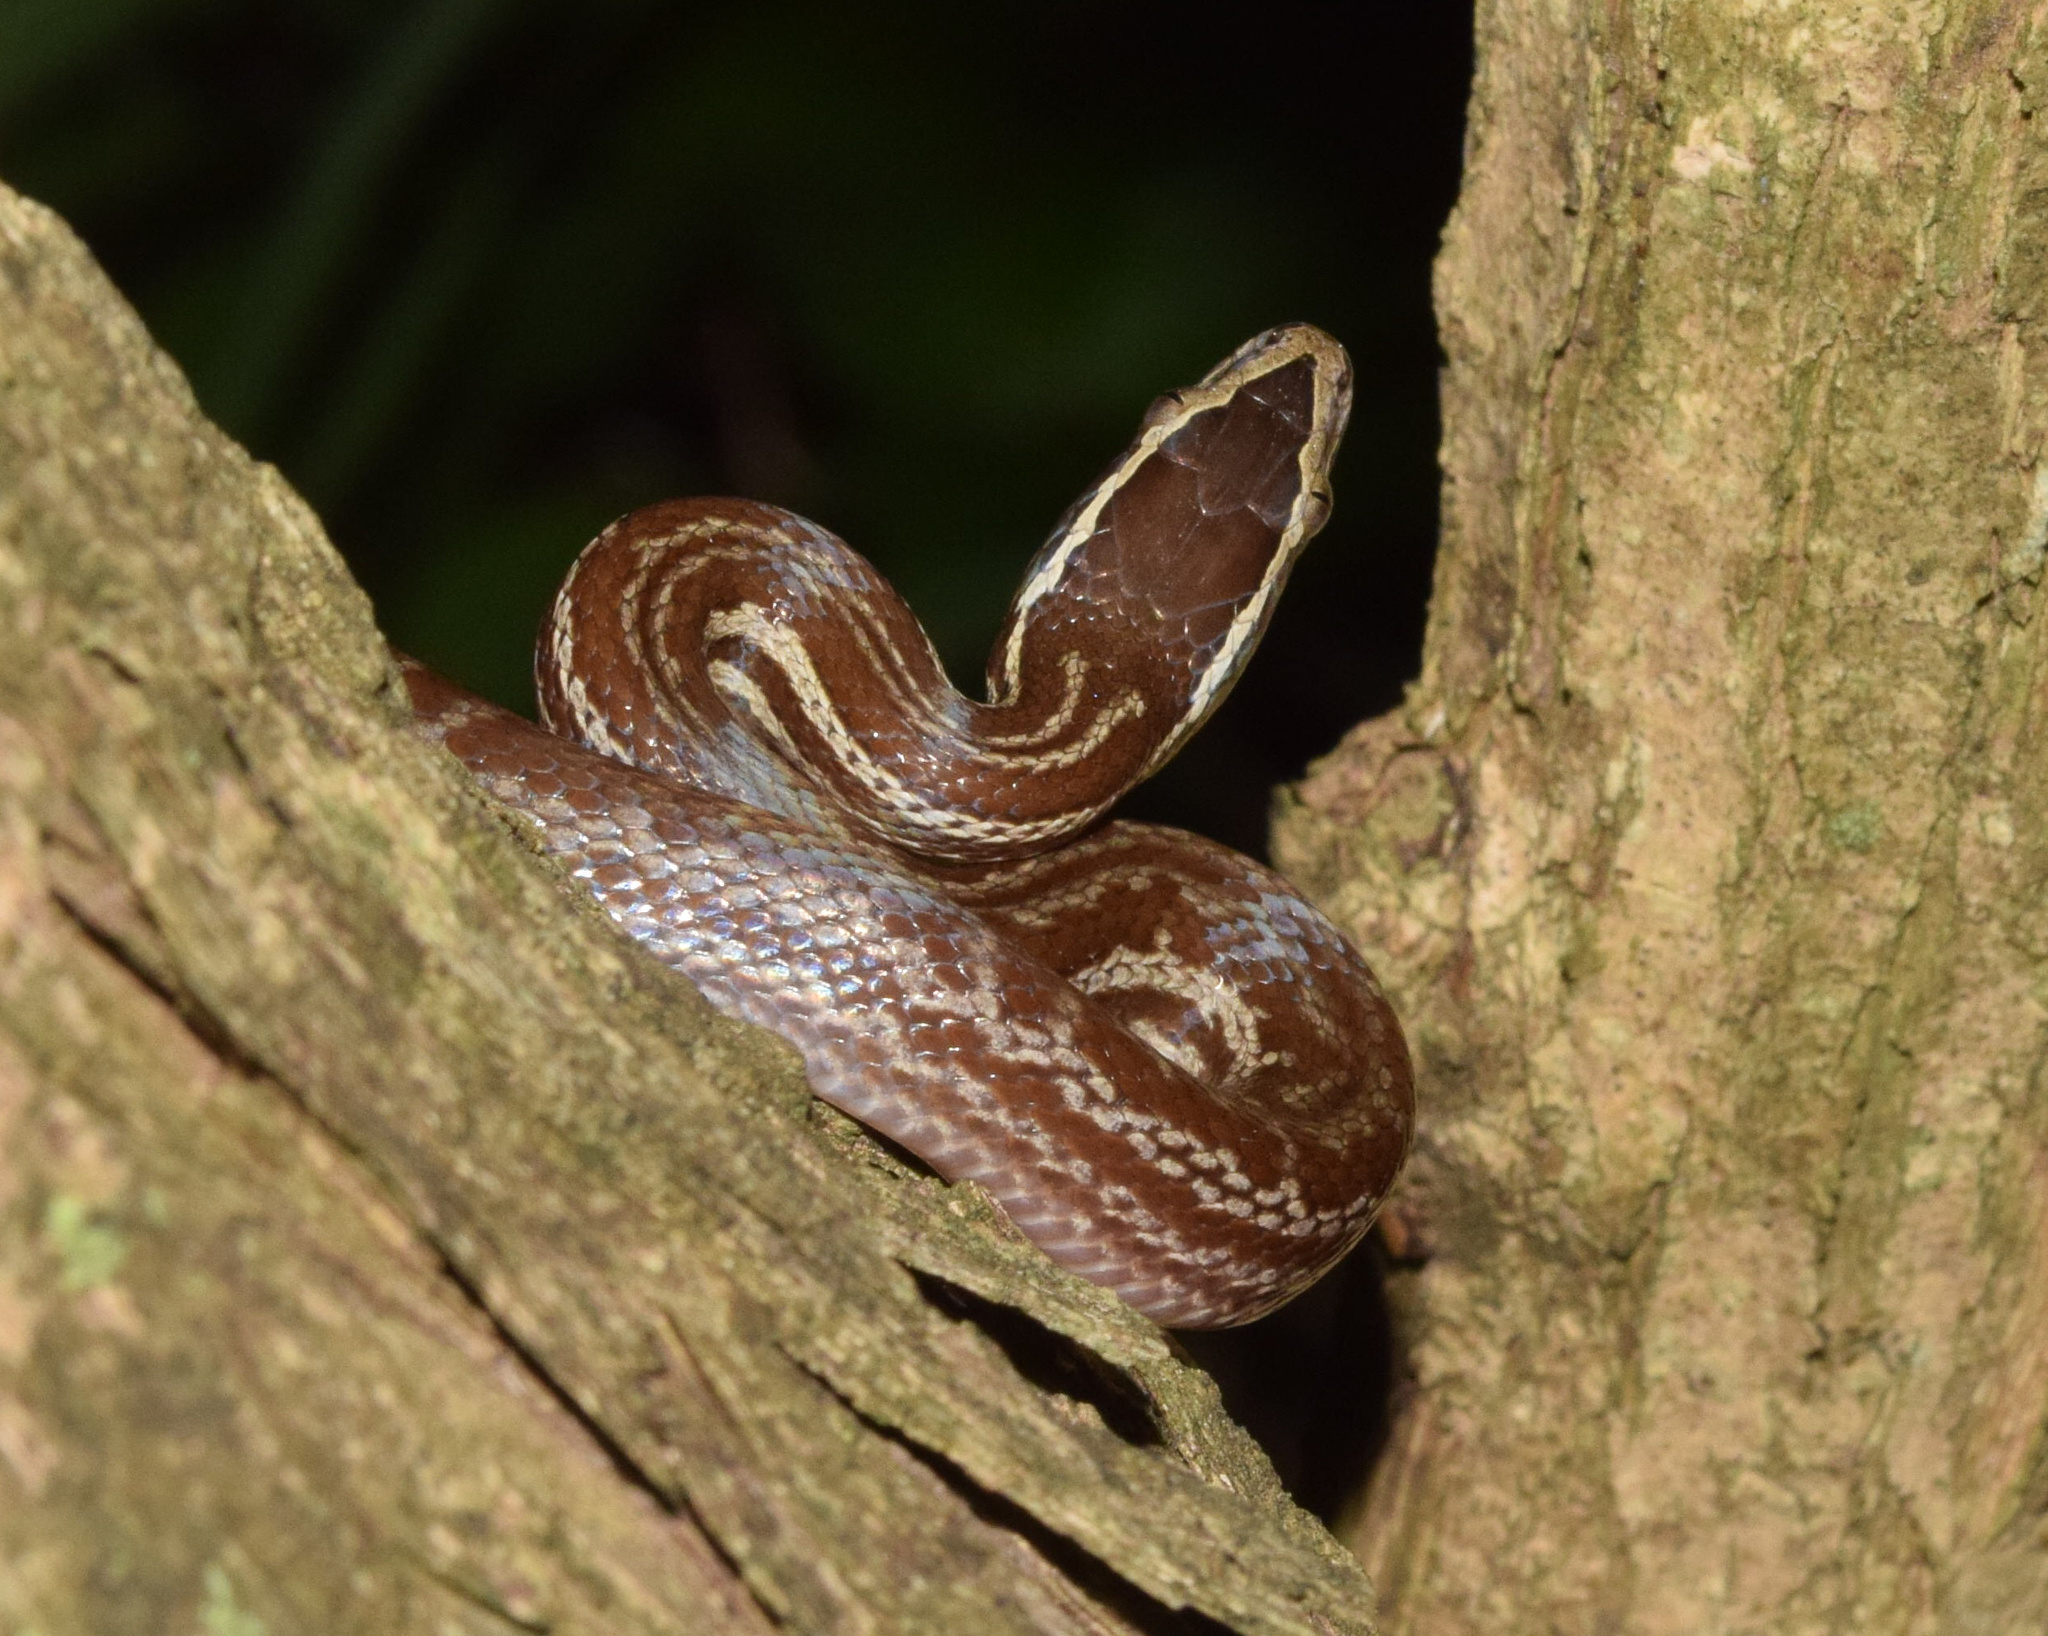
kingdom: Animalia
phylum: Chordata
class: Squamata
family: Lamprophiidae
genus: Boaedon
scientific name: Boaedon capensis
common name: Brown house snake
